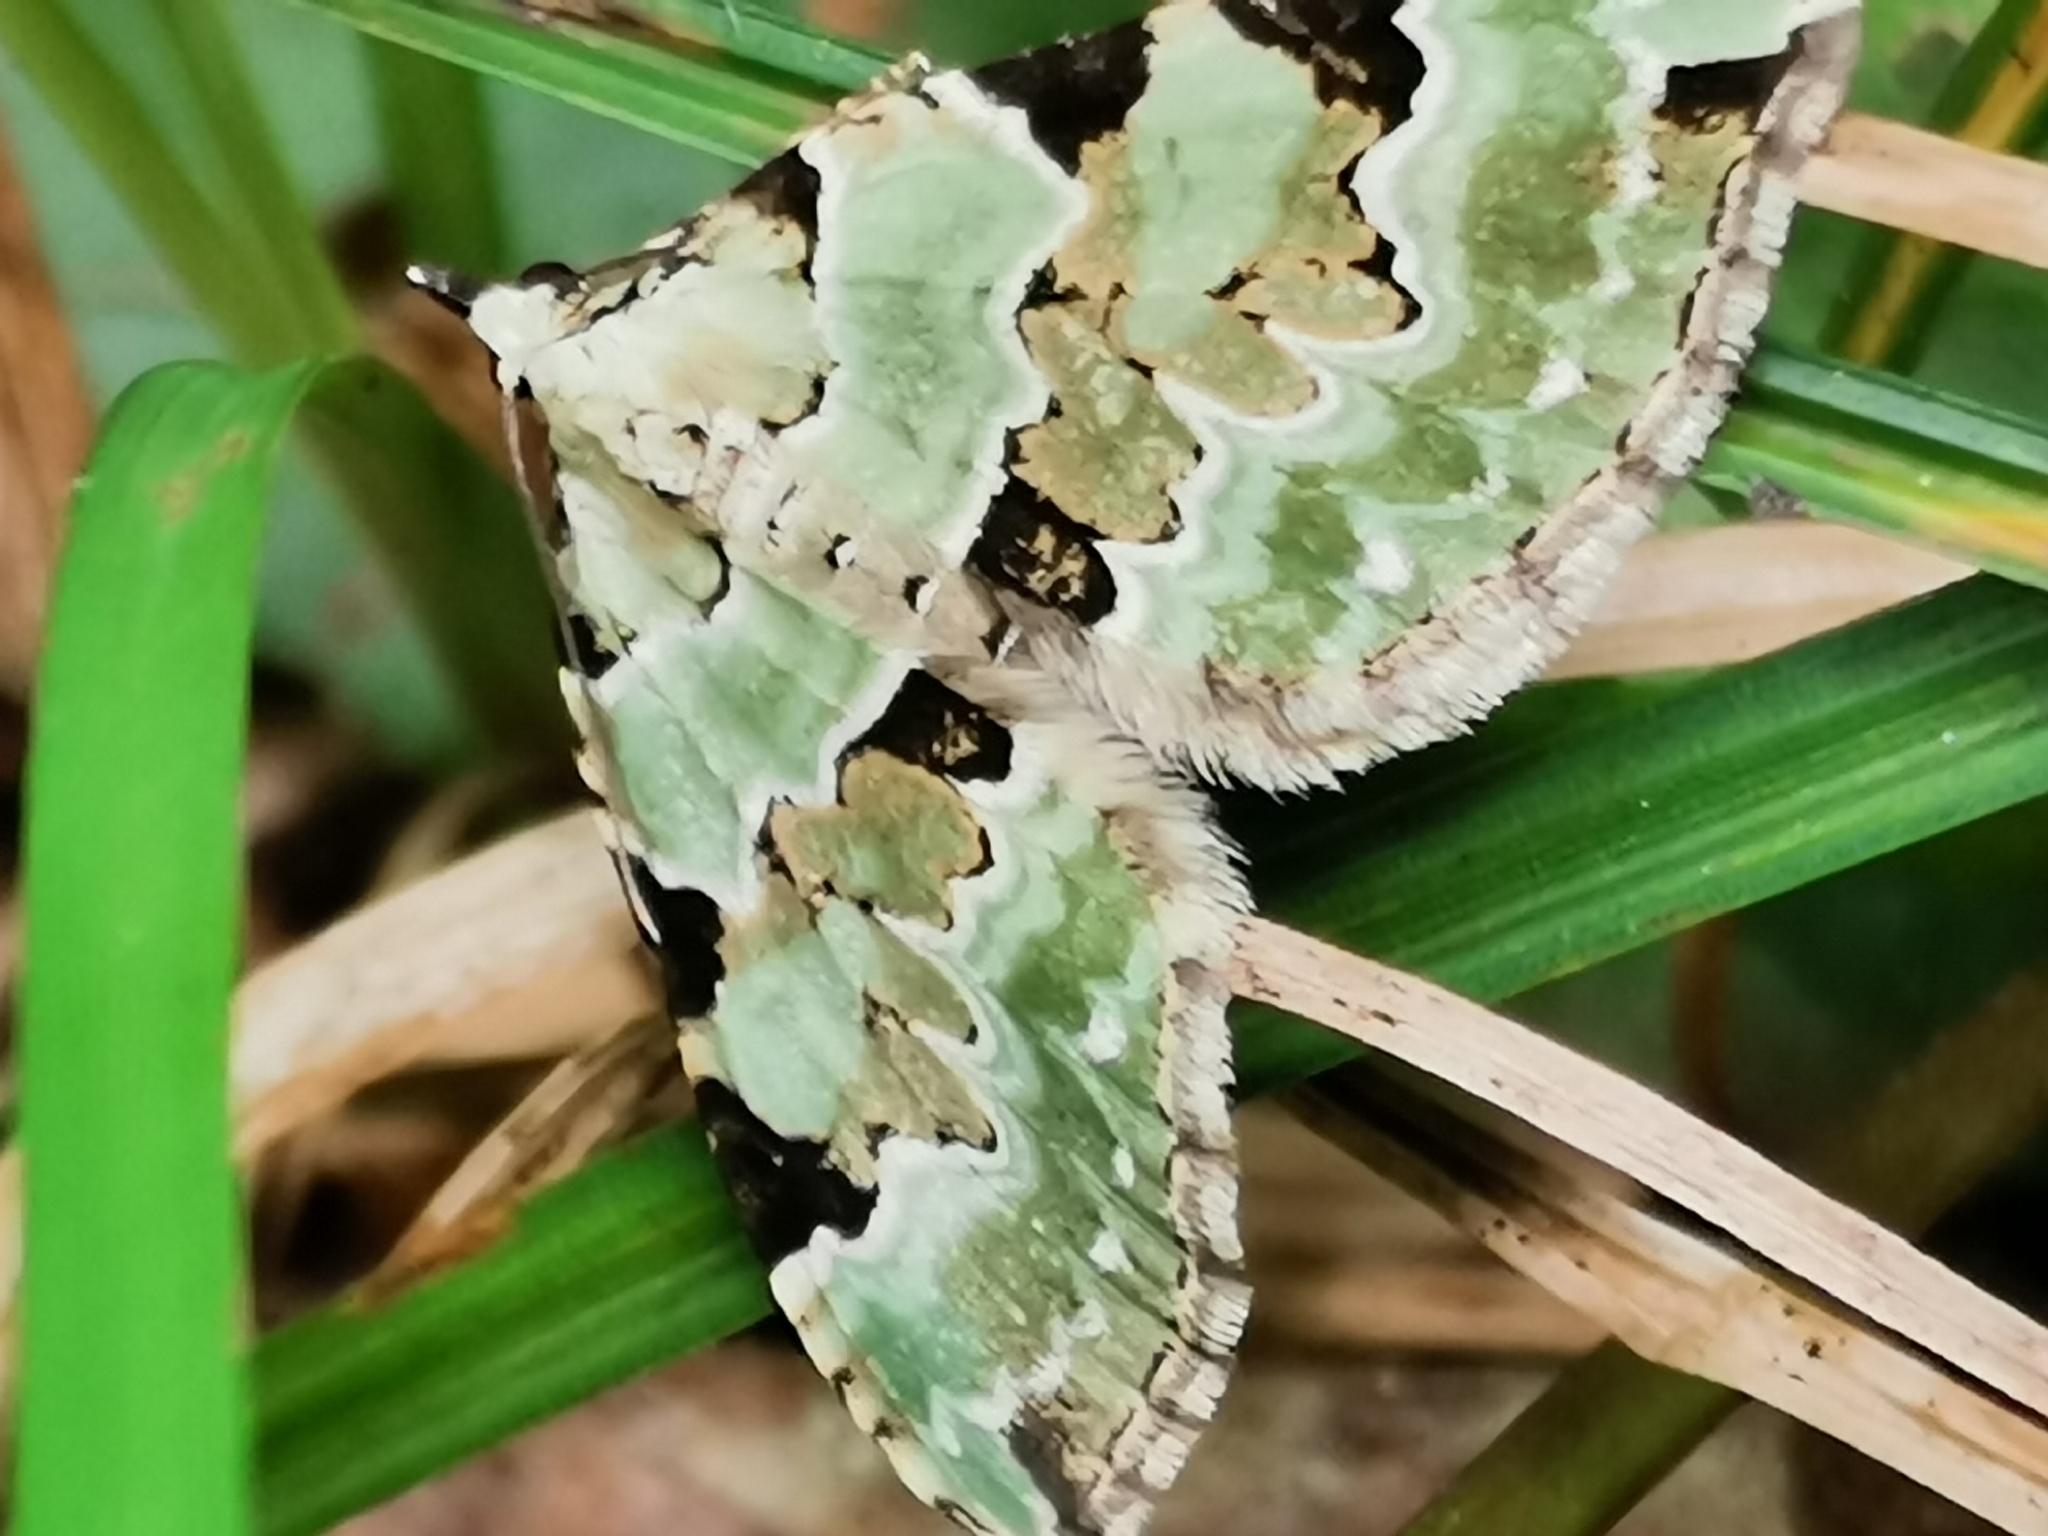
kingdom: Animalia
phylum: Arthropoda
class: Insecta
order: Lepidoptera
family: Geometridae
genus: Colostygia
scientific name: Colostygia pectinataria
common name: Green carpet
